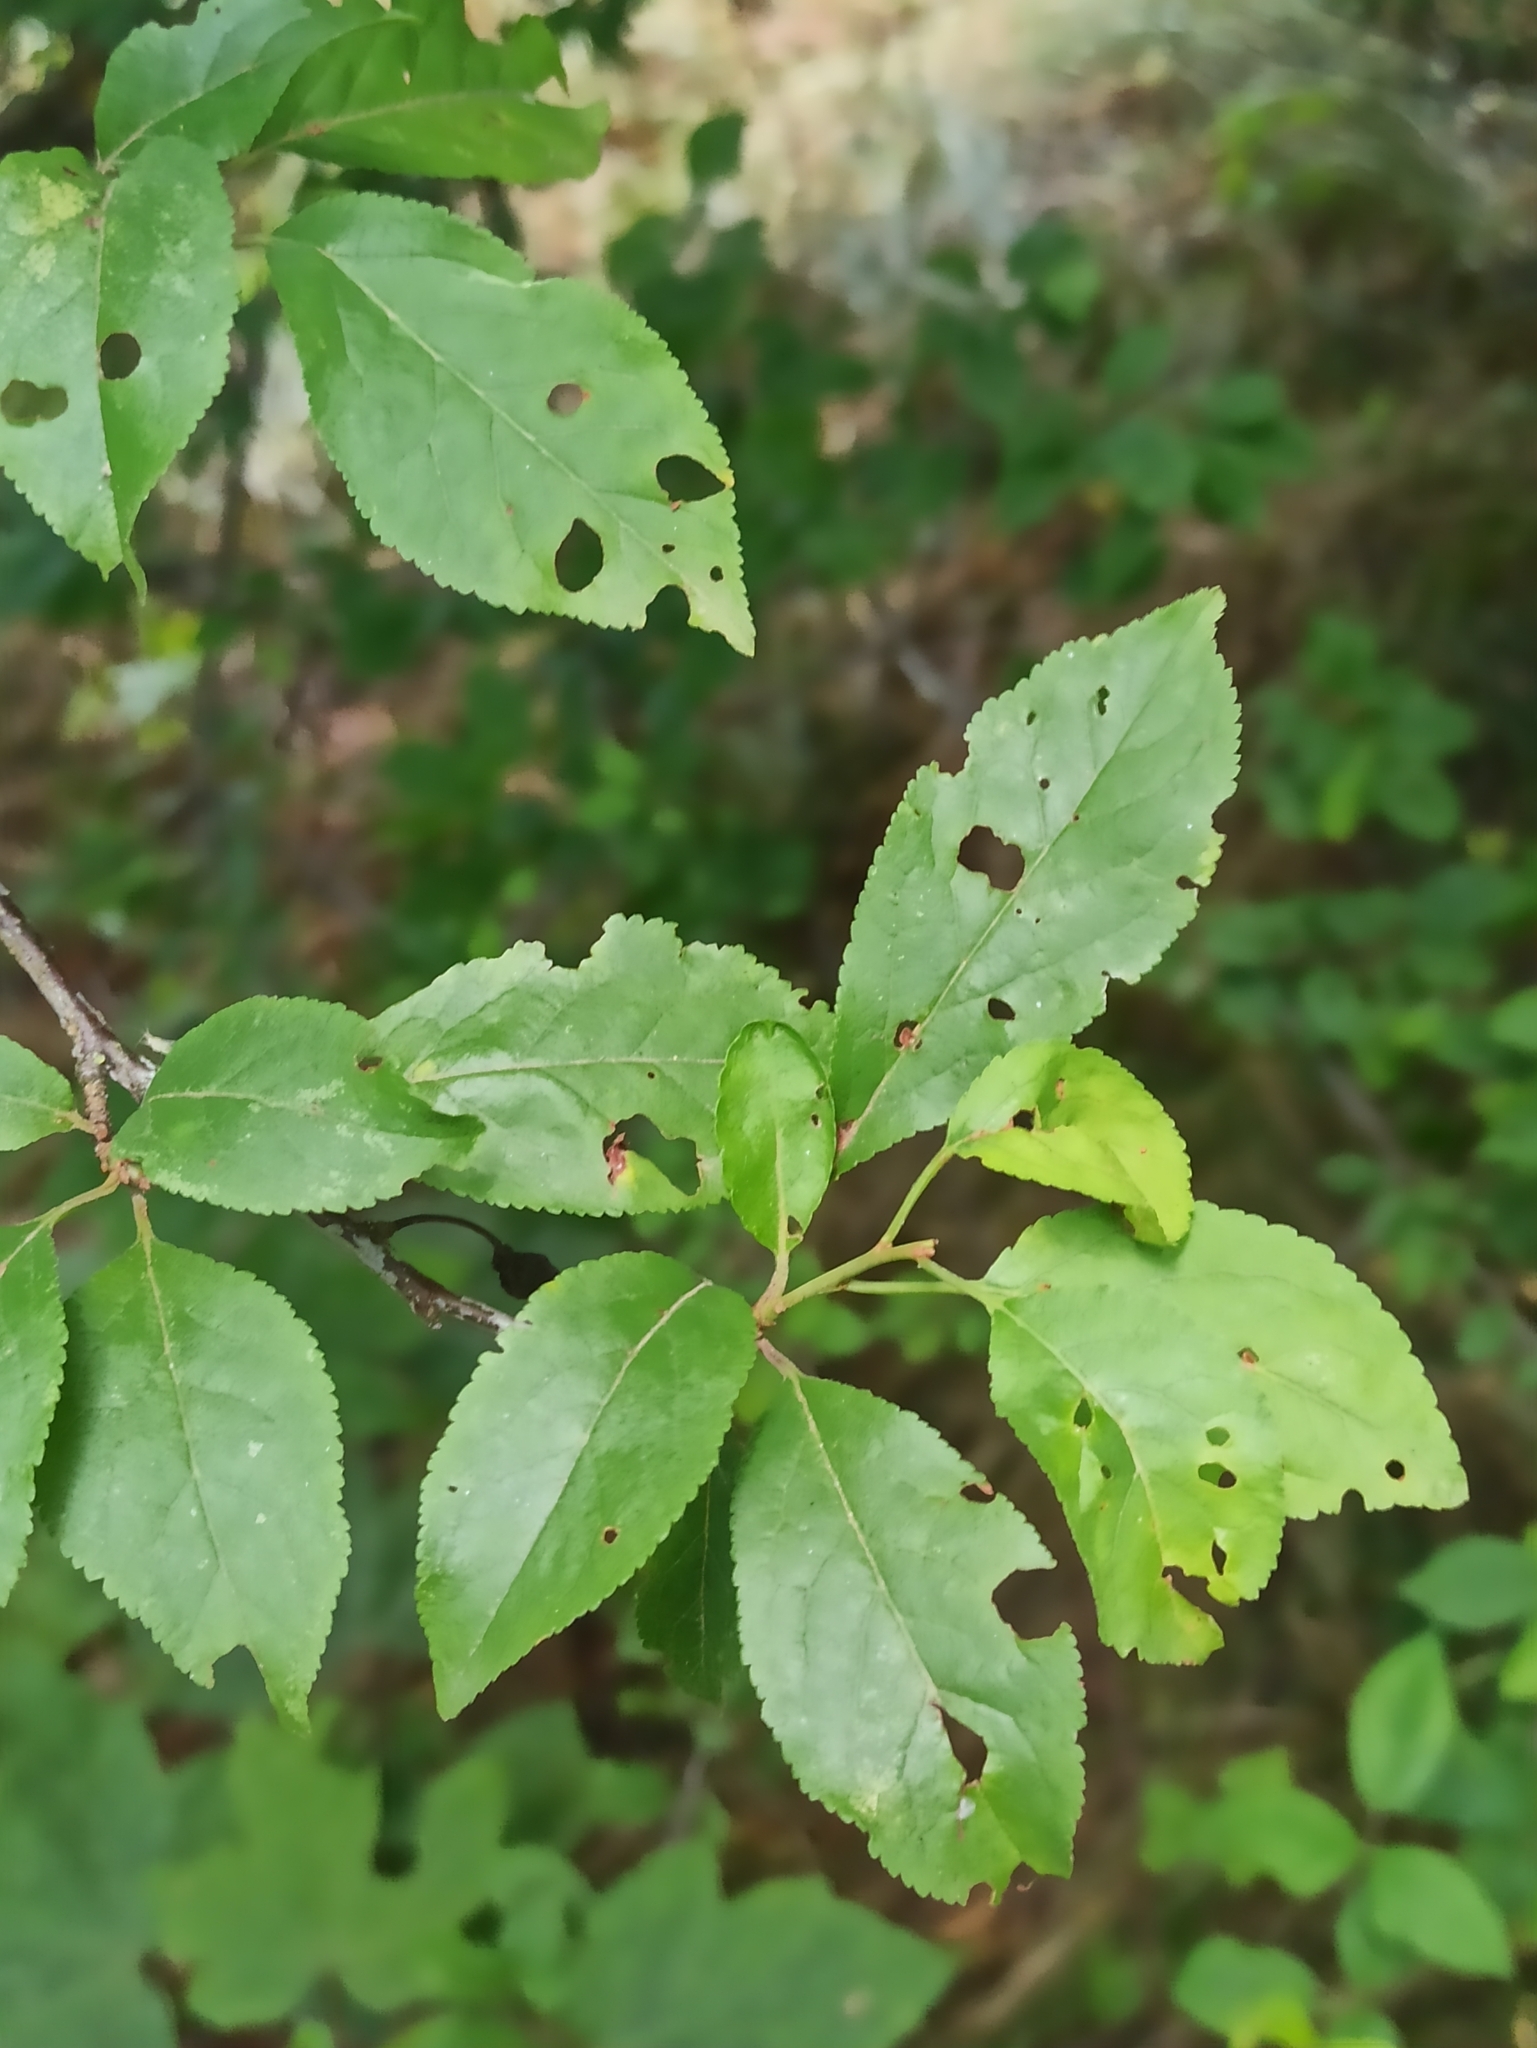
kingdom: Plantae
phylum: Tracheophyta
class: Magnoliopsida
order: Rosales
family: Rosaceae
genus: Prunus
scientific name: Prunus cerasifera
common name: Cherry plum
